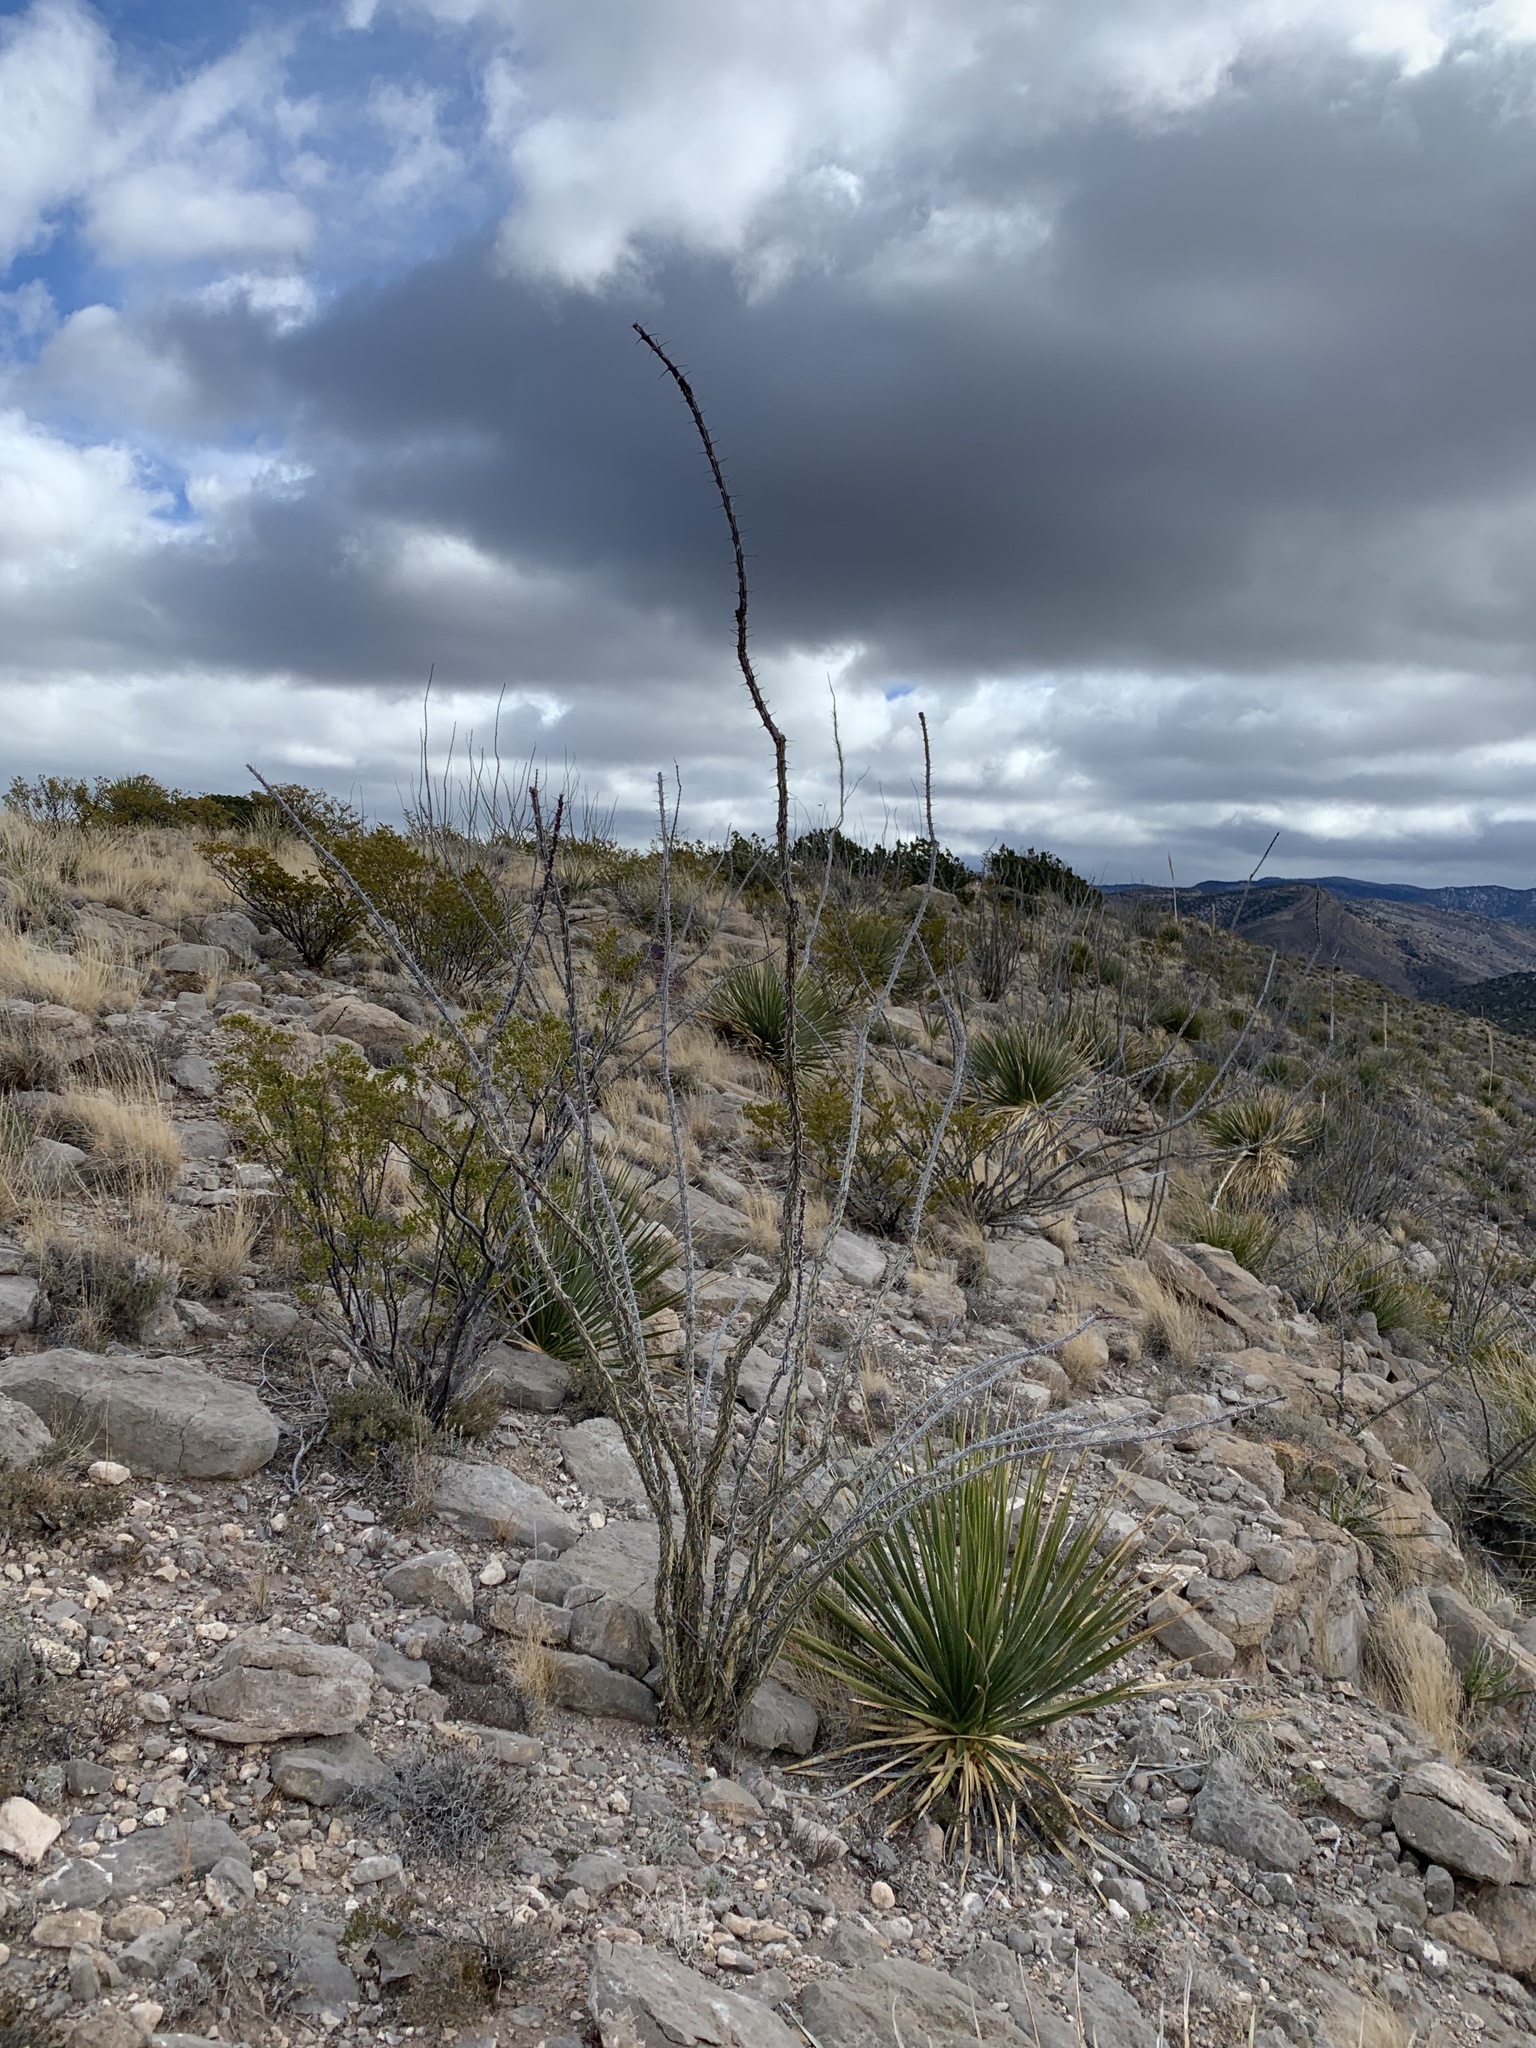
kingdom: Plantae
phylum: Tracheophyta
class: Magnoliopsida
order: Ericales
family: Fouquieriaceae
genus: Fouquieria
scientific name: Fouquieria splendens
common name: Vine-cactus
